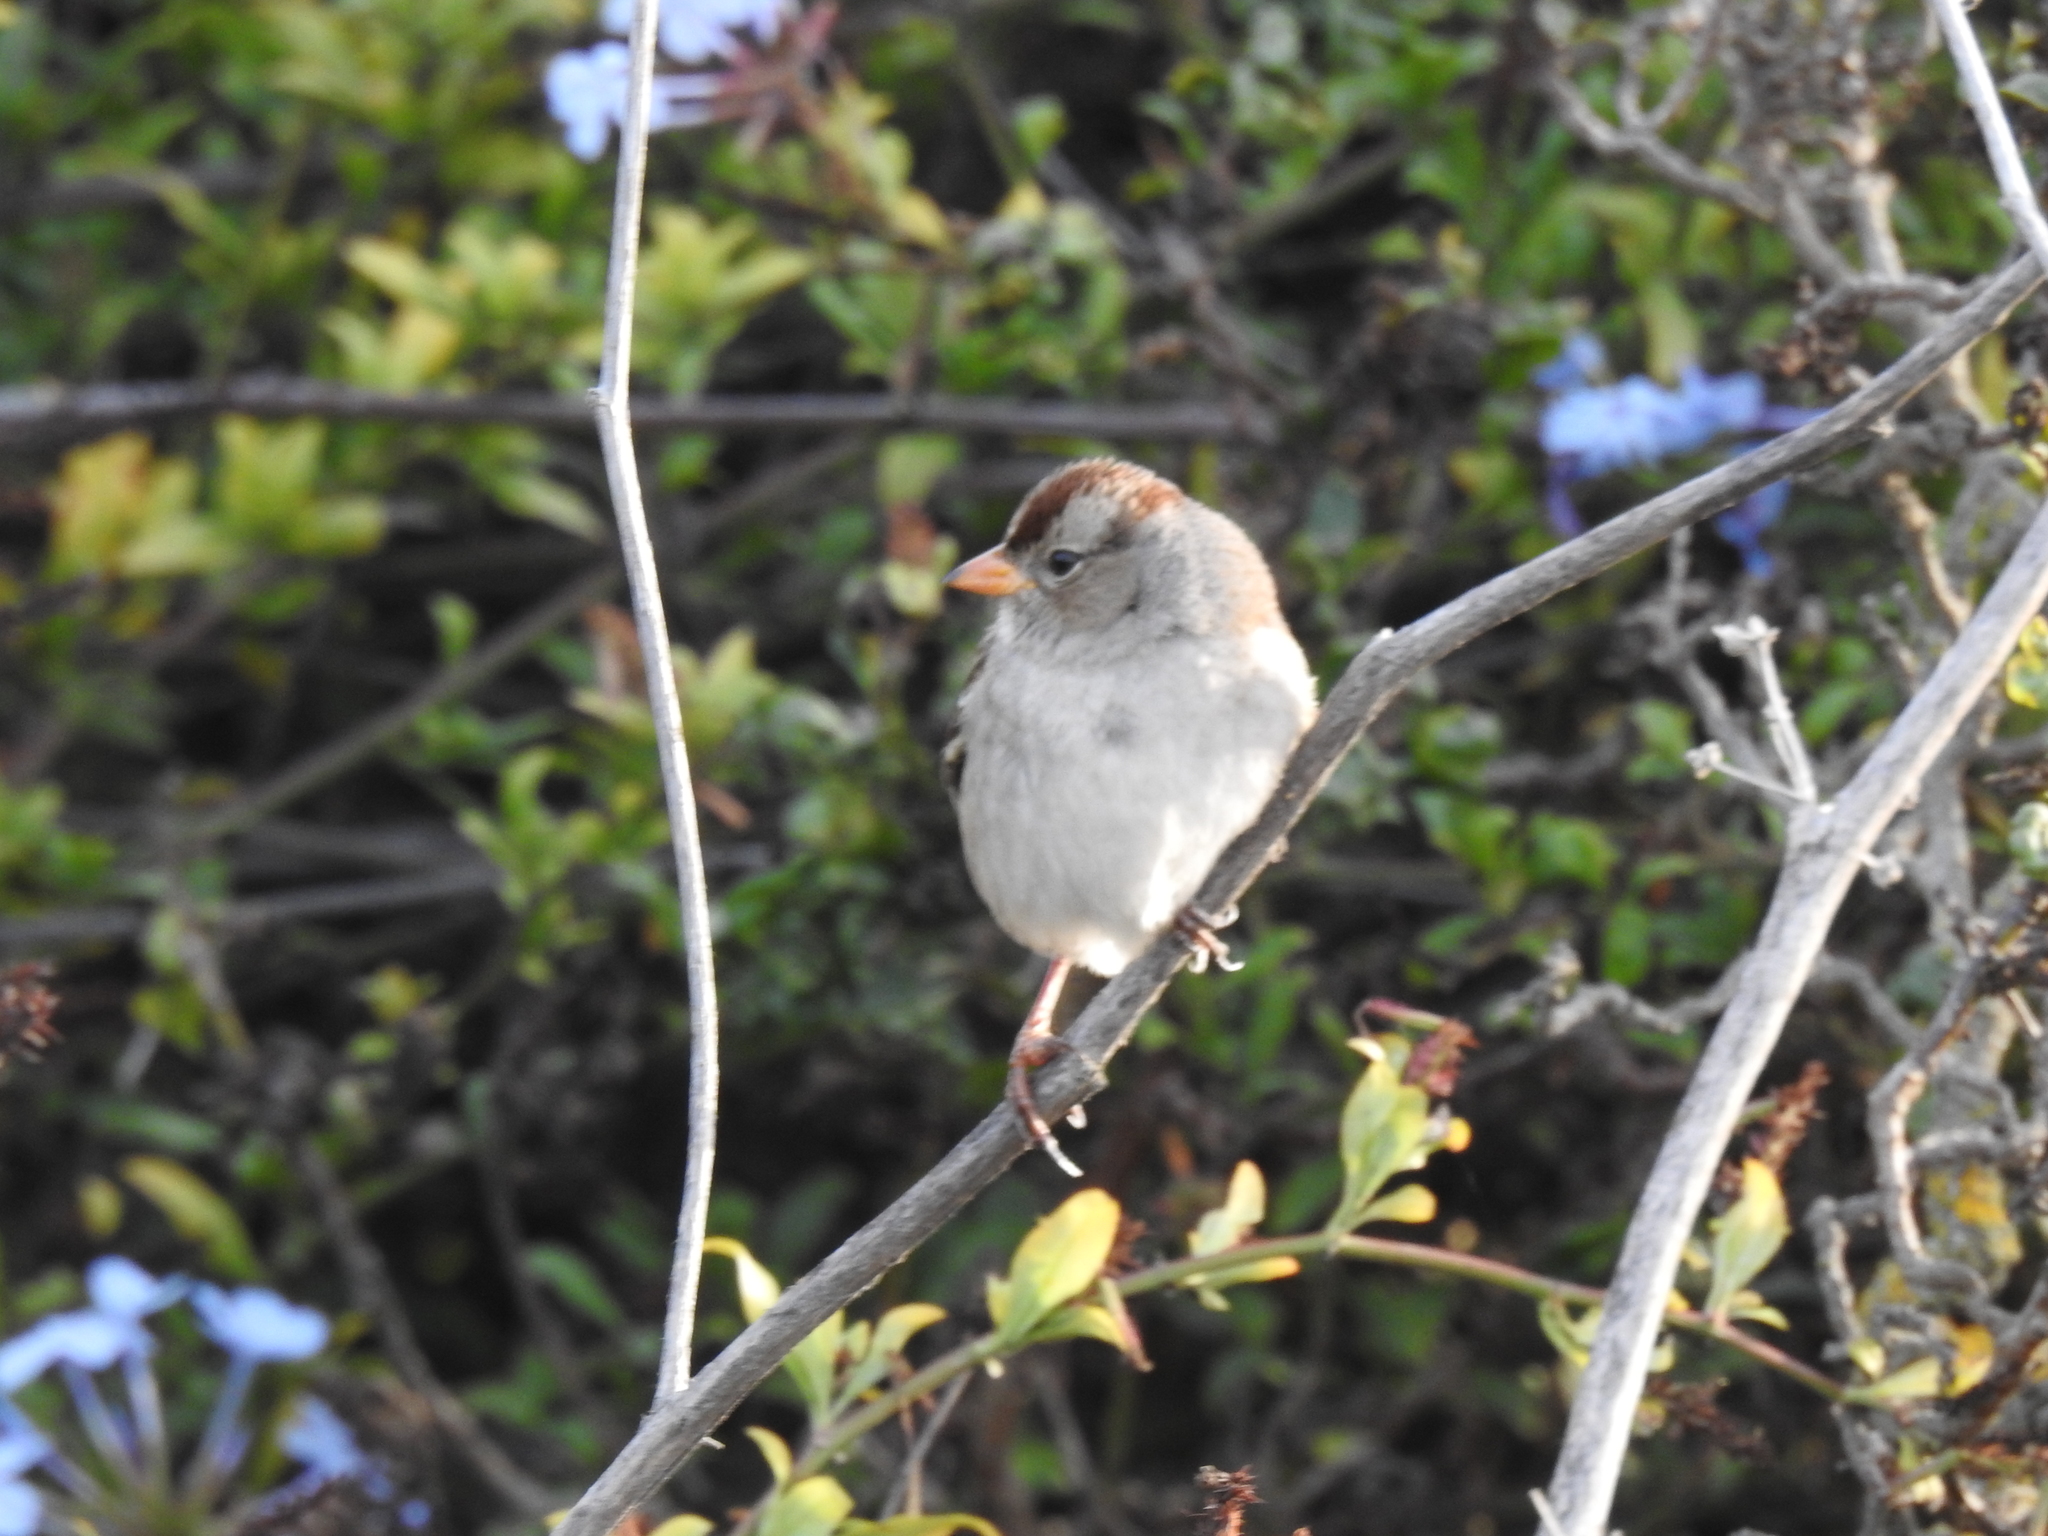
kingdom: Animalia
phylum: Chordata
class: Aves
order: Passeriformes
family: Passerellidae
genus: Zonotrichia
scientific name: Zonotrichia leucophrys
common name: White-crowned sparrow
